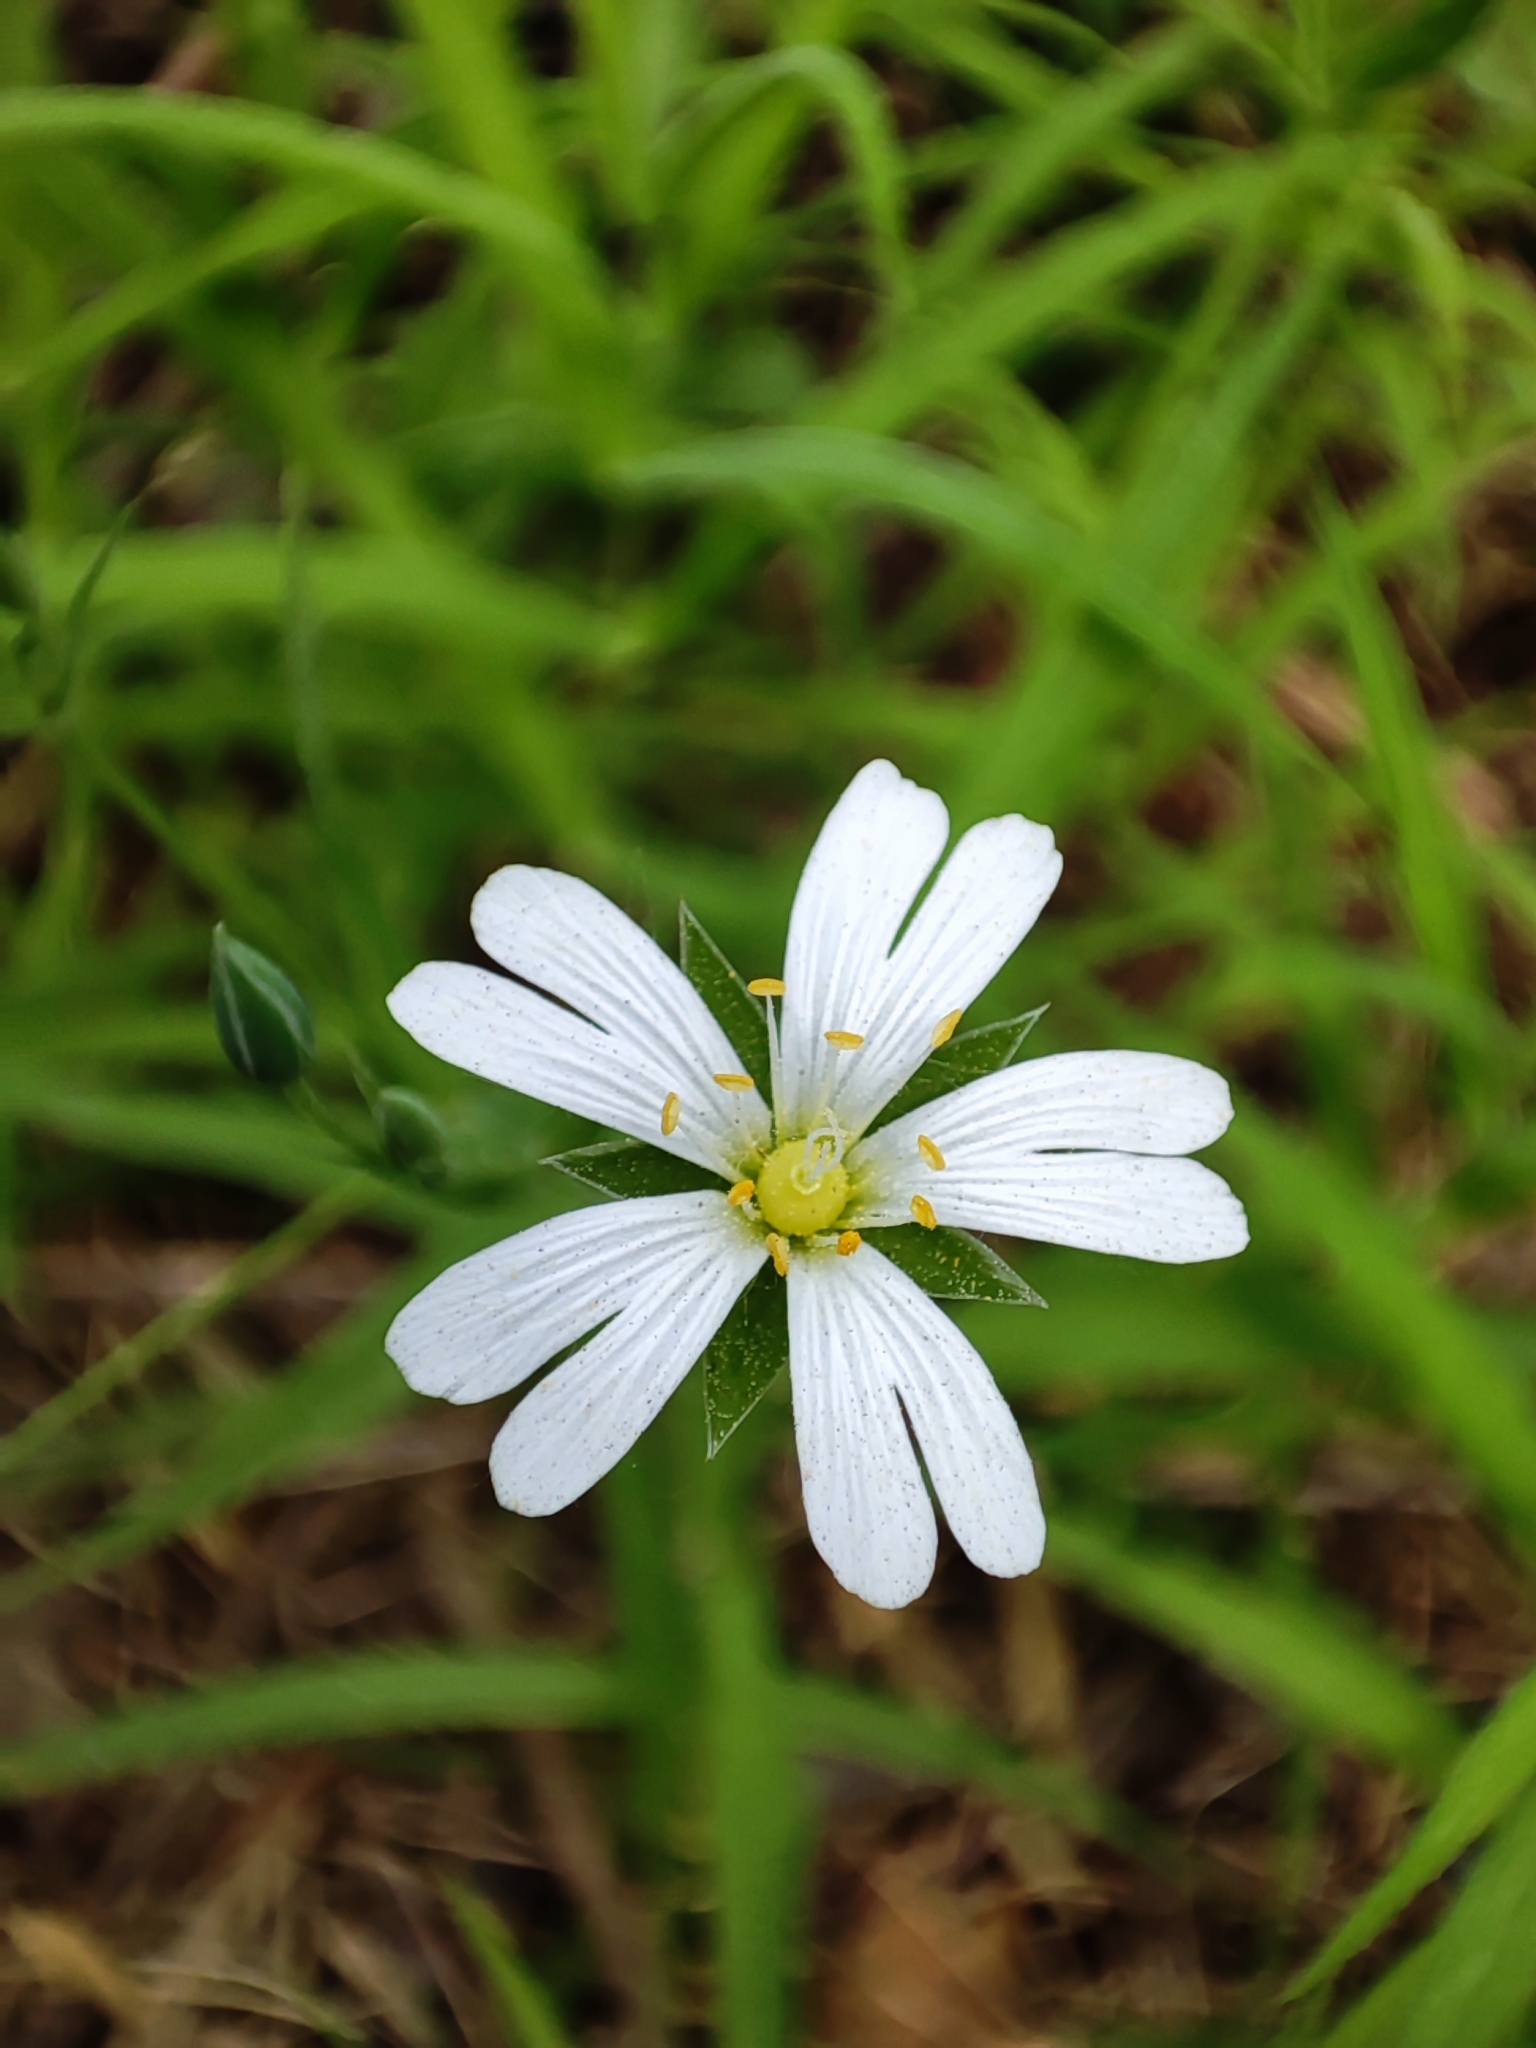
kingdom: Plantae
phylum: Tracheophyta
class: Magnoliopsida
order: Caryophyllales
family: Caryophyllaceae
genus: Rabelera
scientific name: Rabelera holostea
